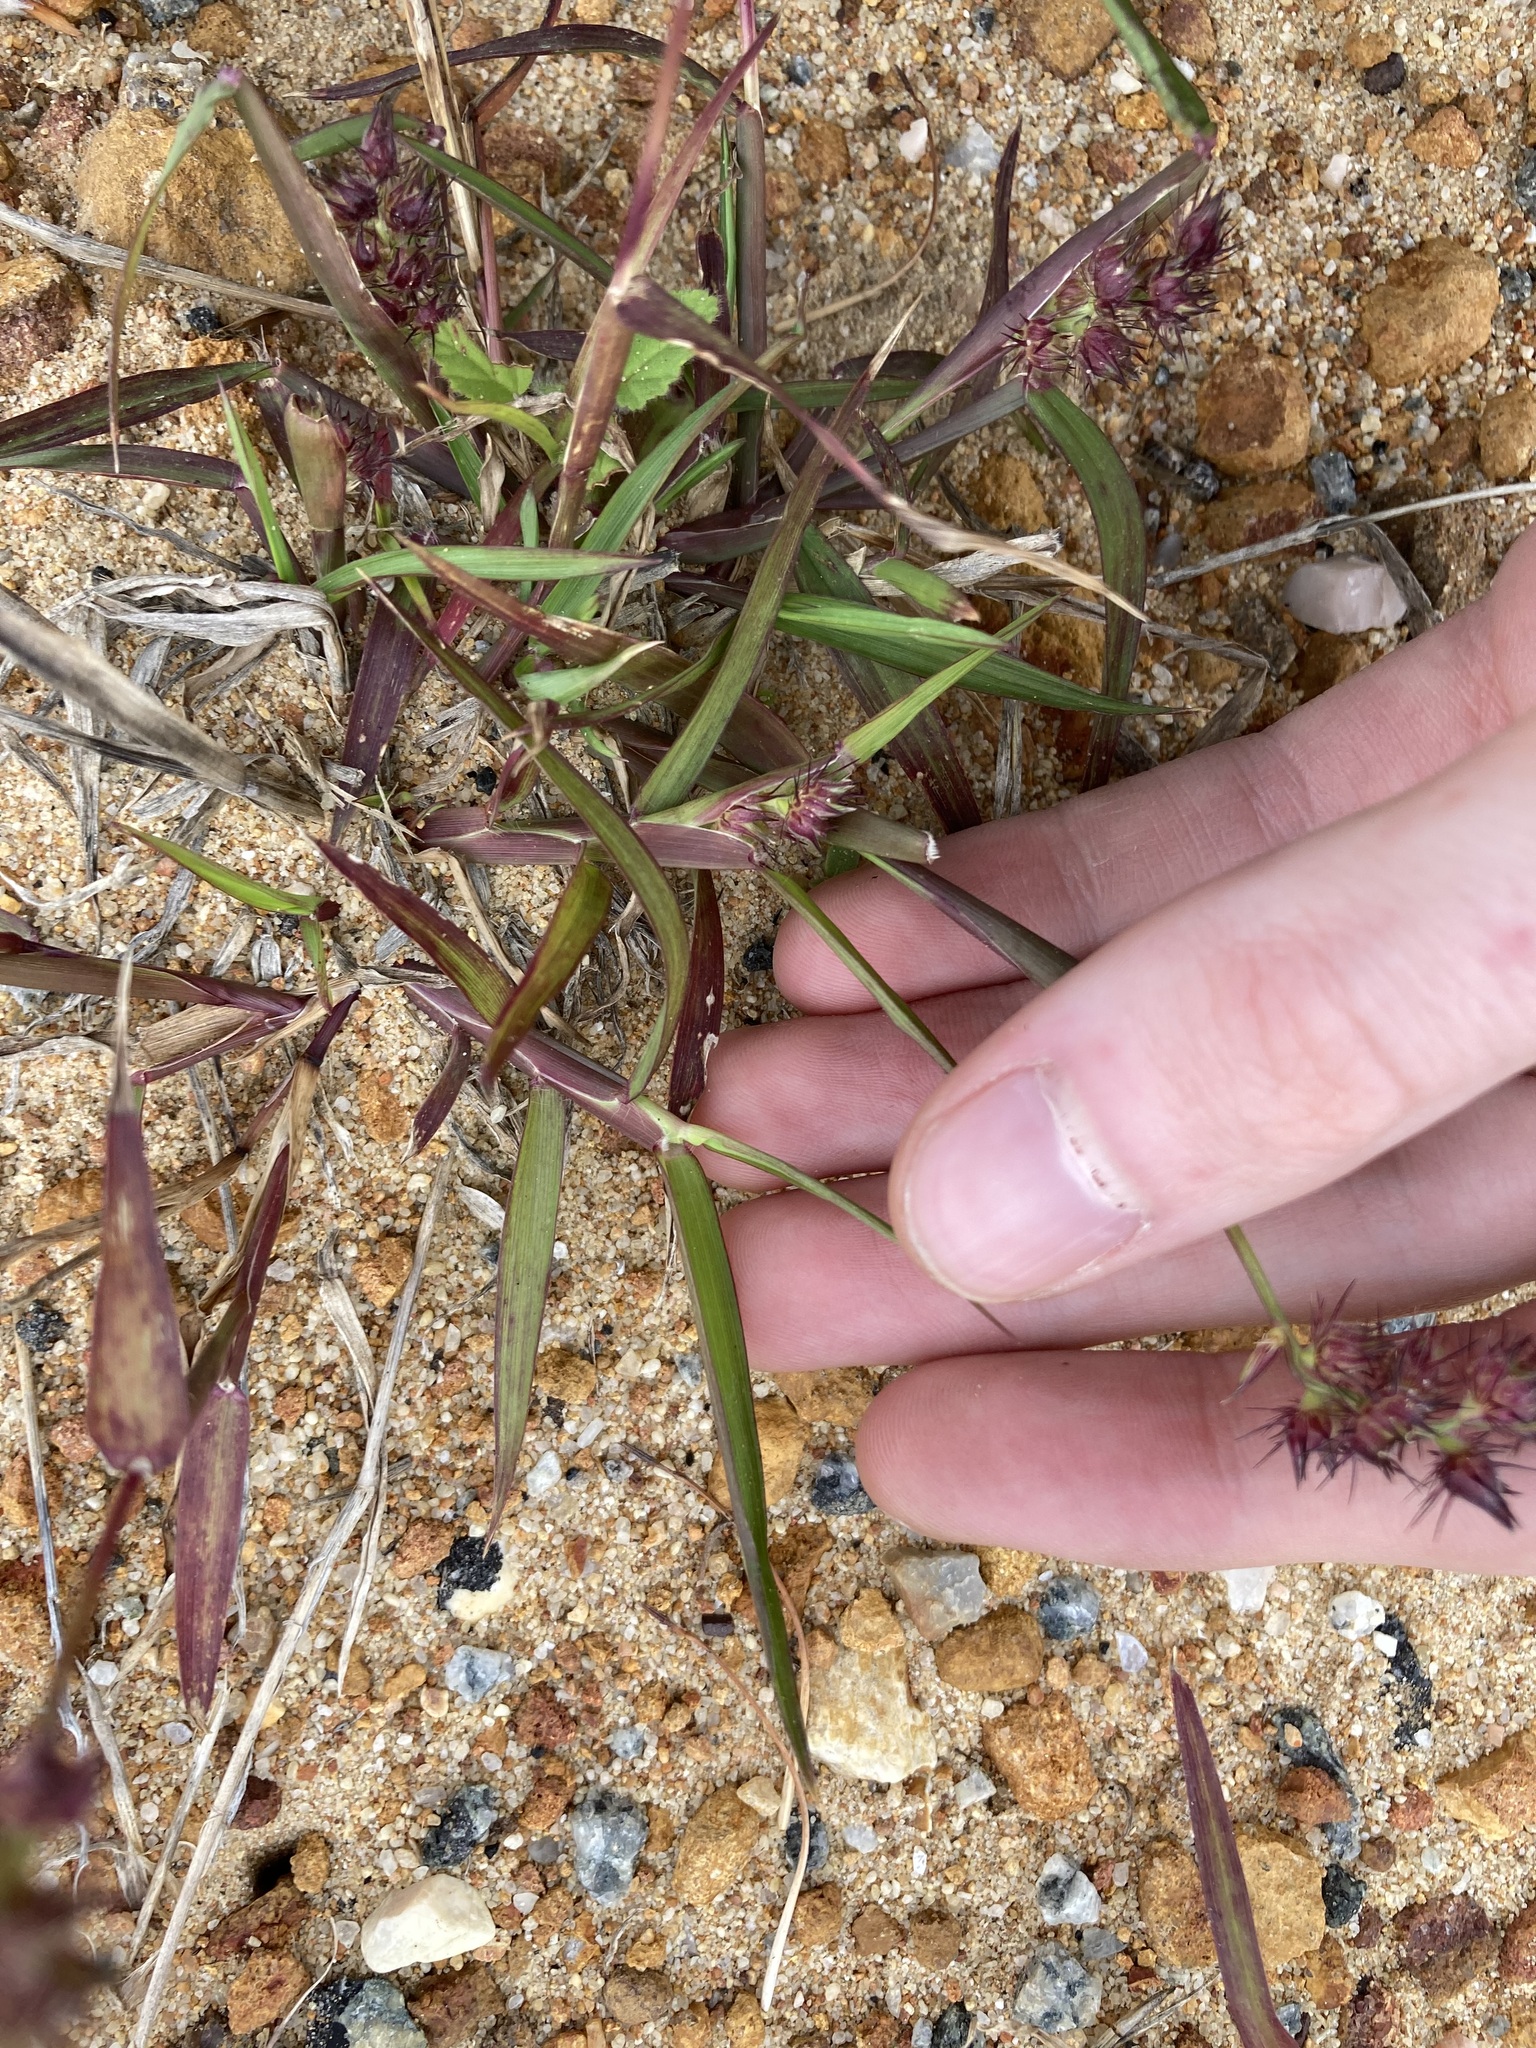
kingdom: Plantae
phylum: Tracheophyta
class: Liliopsida
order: Poales
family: Poaceae
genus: Cenchrus
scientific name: Cenchrus echinatus
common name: Southern sandbur
